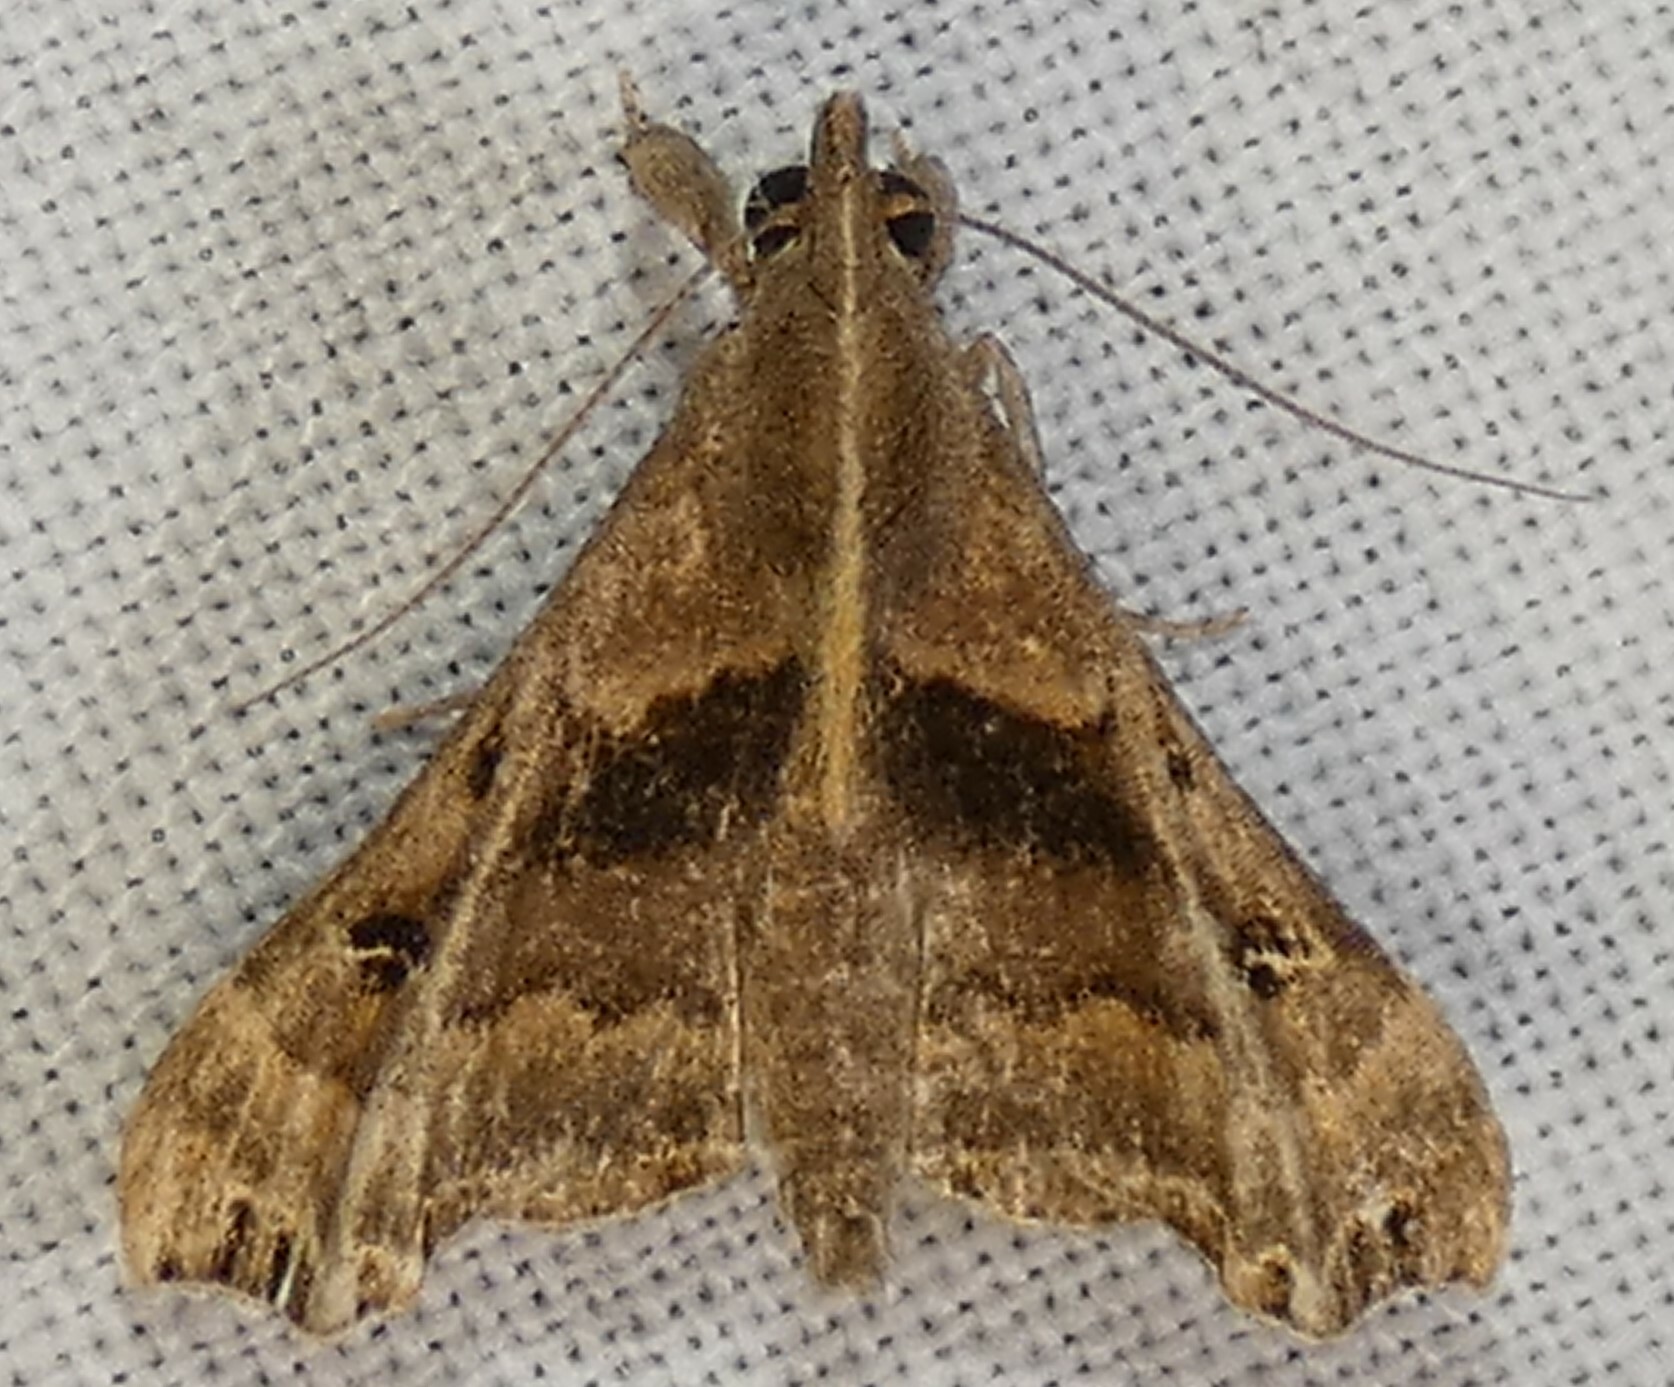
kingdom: Animalia
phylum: Arthropoda
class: Insecta
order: Lepidoptera
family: Erebidae
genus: Palthis
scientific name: Palthis asopialis
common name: Faint-spotted palthis moth
